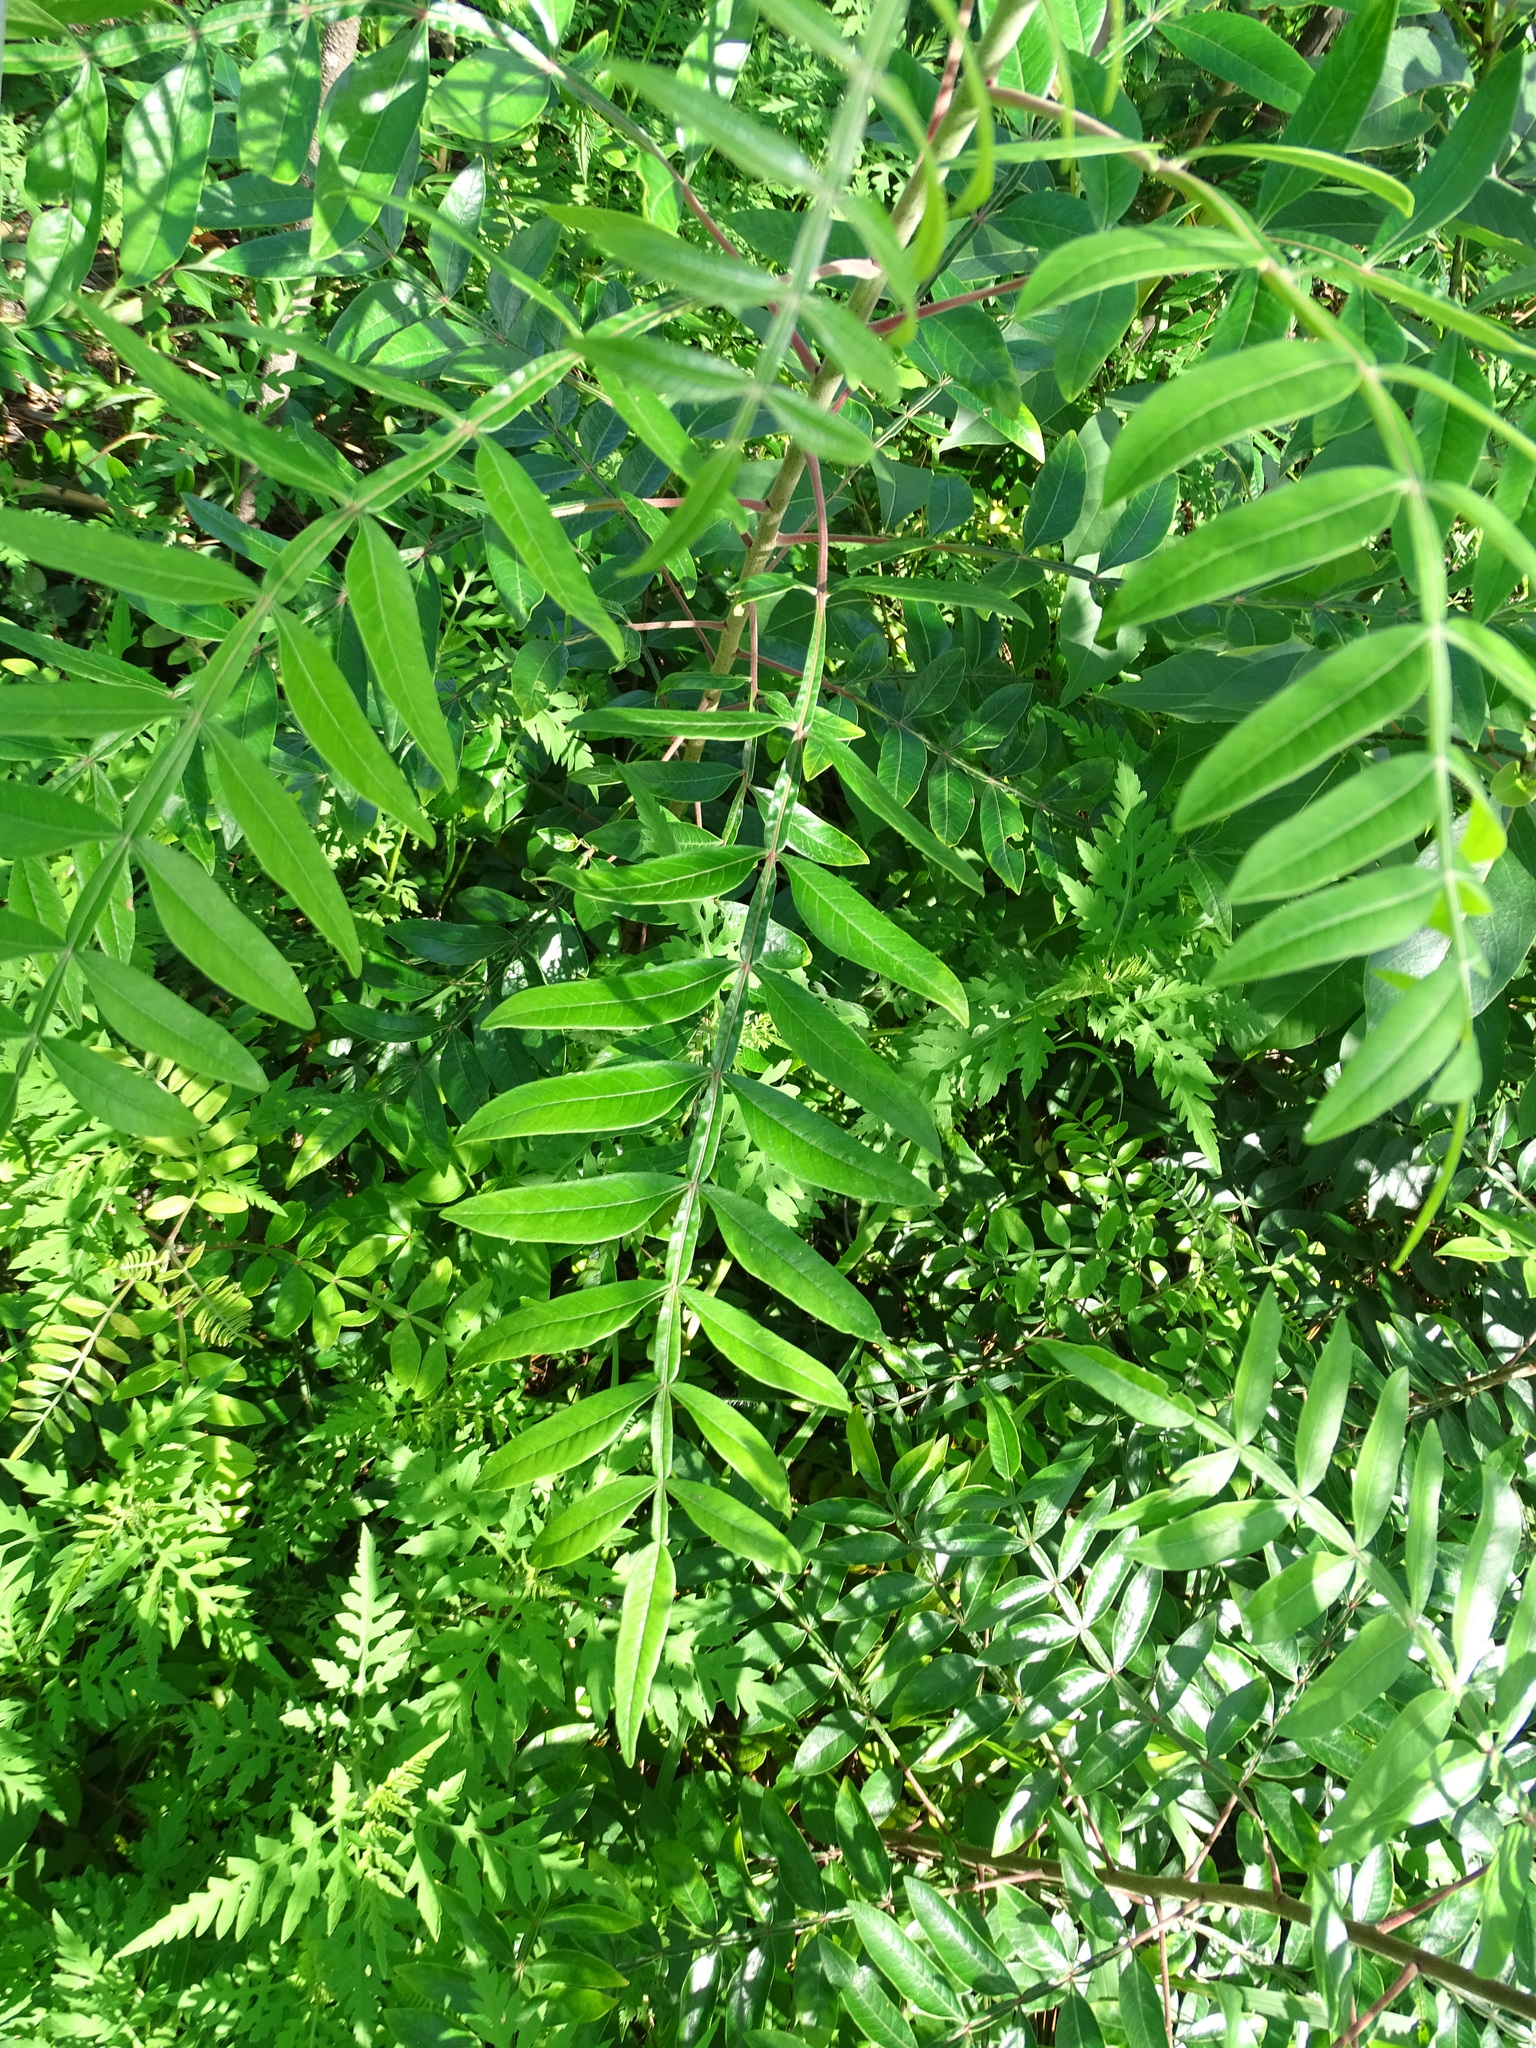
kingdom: Plantae
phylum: Tracheophyta
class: Magnoliopsida
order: Sapindales
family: Anacardiaceae
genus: Rhus
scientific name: Rhus copallina
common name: Shining sumac
